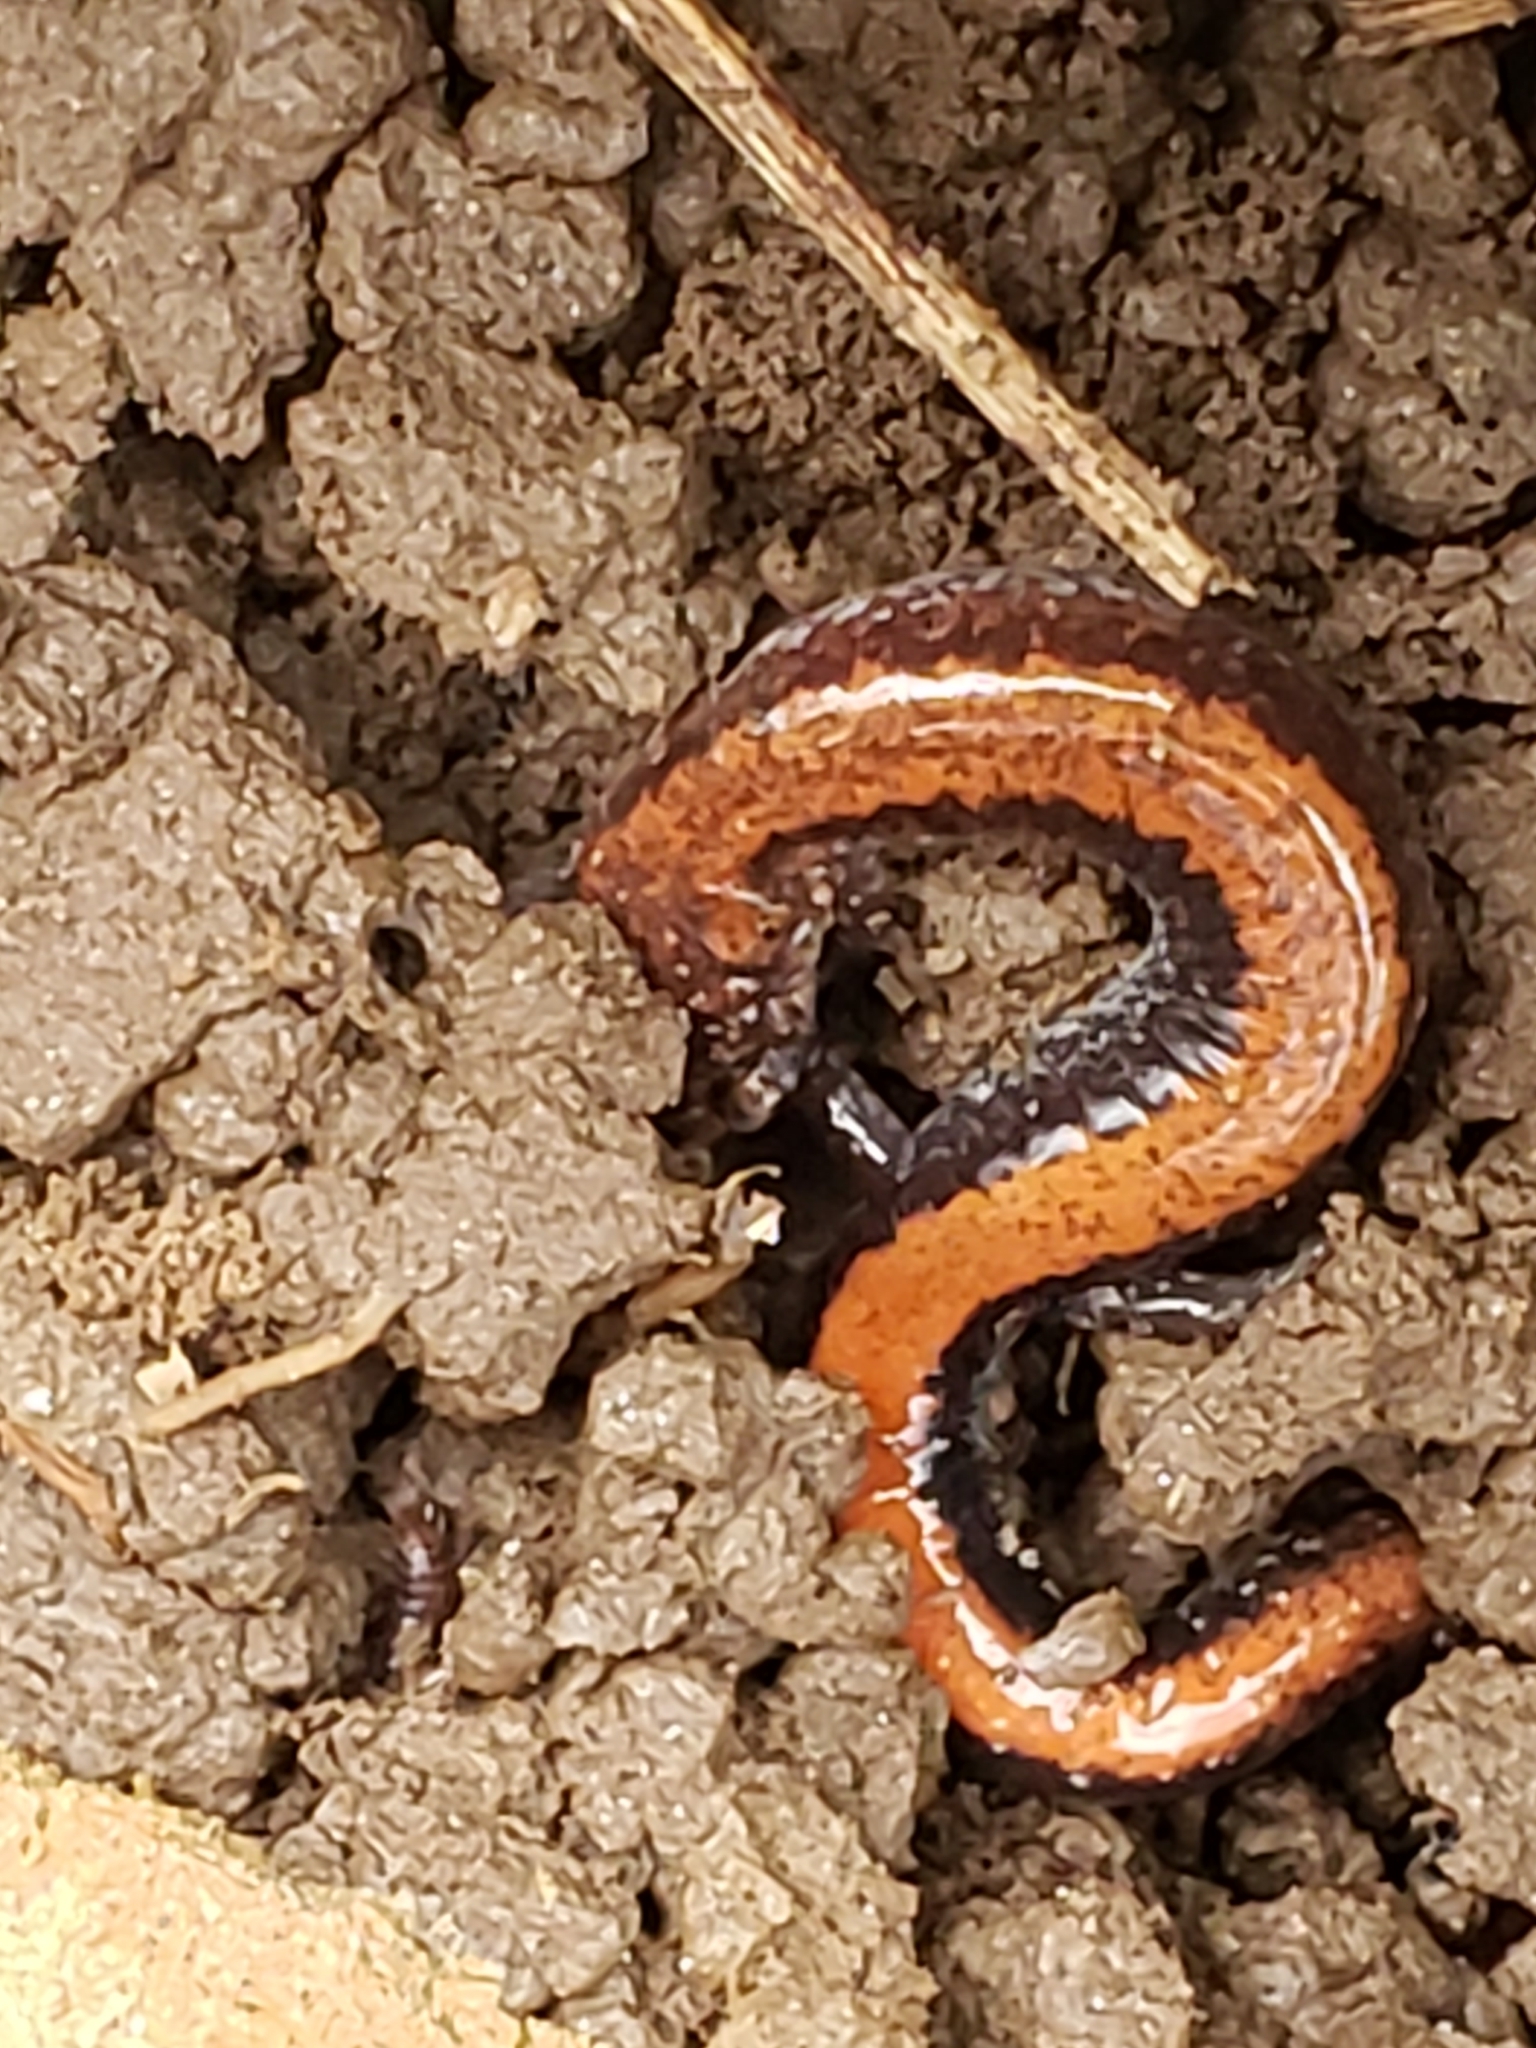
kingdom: Animalia
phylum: Chordata
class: Amphibia
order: Caudata
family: Plethodontidae
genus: Plethodon
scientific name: Plethodon cinereus
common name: Redback salamander
